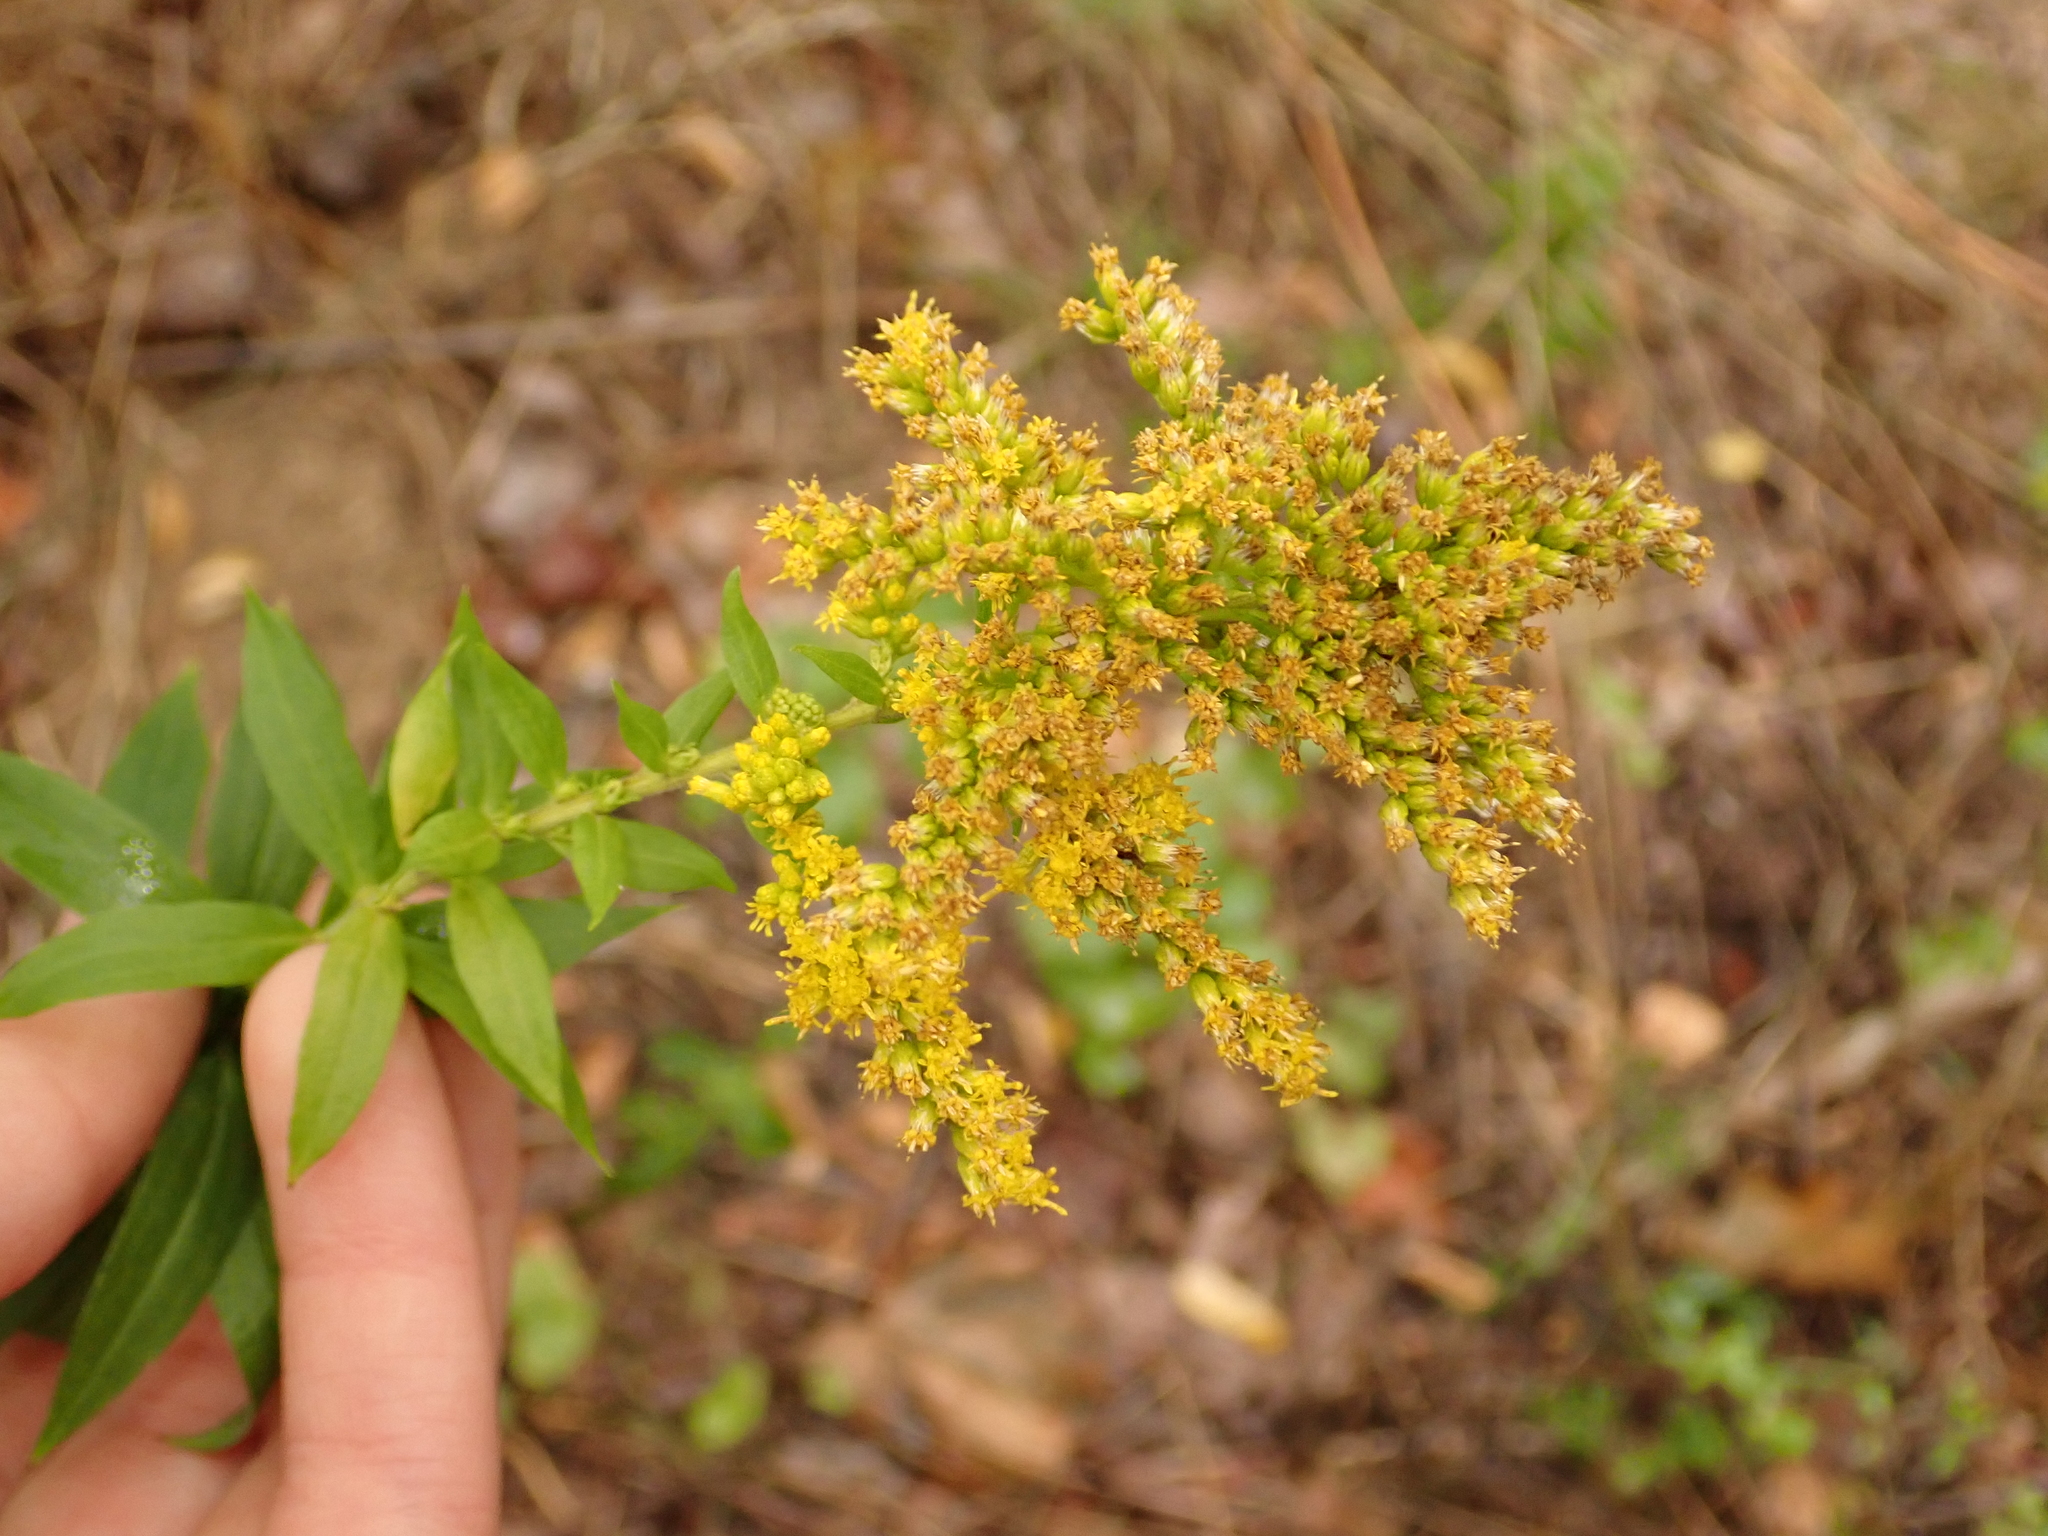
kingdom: Plantae
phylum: Tracheophyta
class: Magnoliopsida
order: Asterales
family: Asteraceae
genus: Solidago
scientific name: Solidago canadensis
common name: Canada goldenrod
